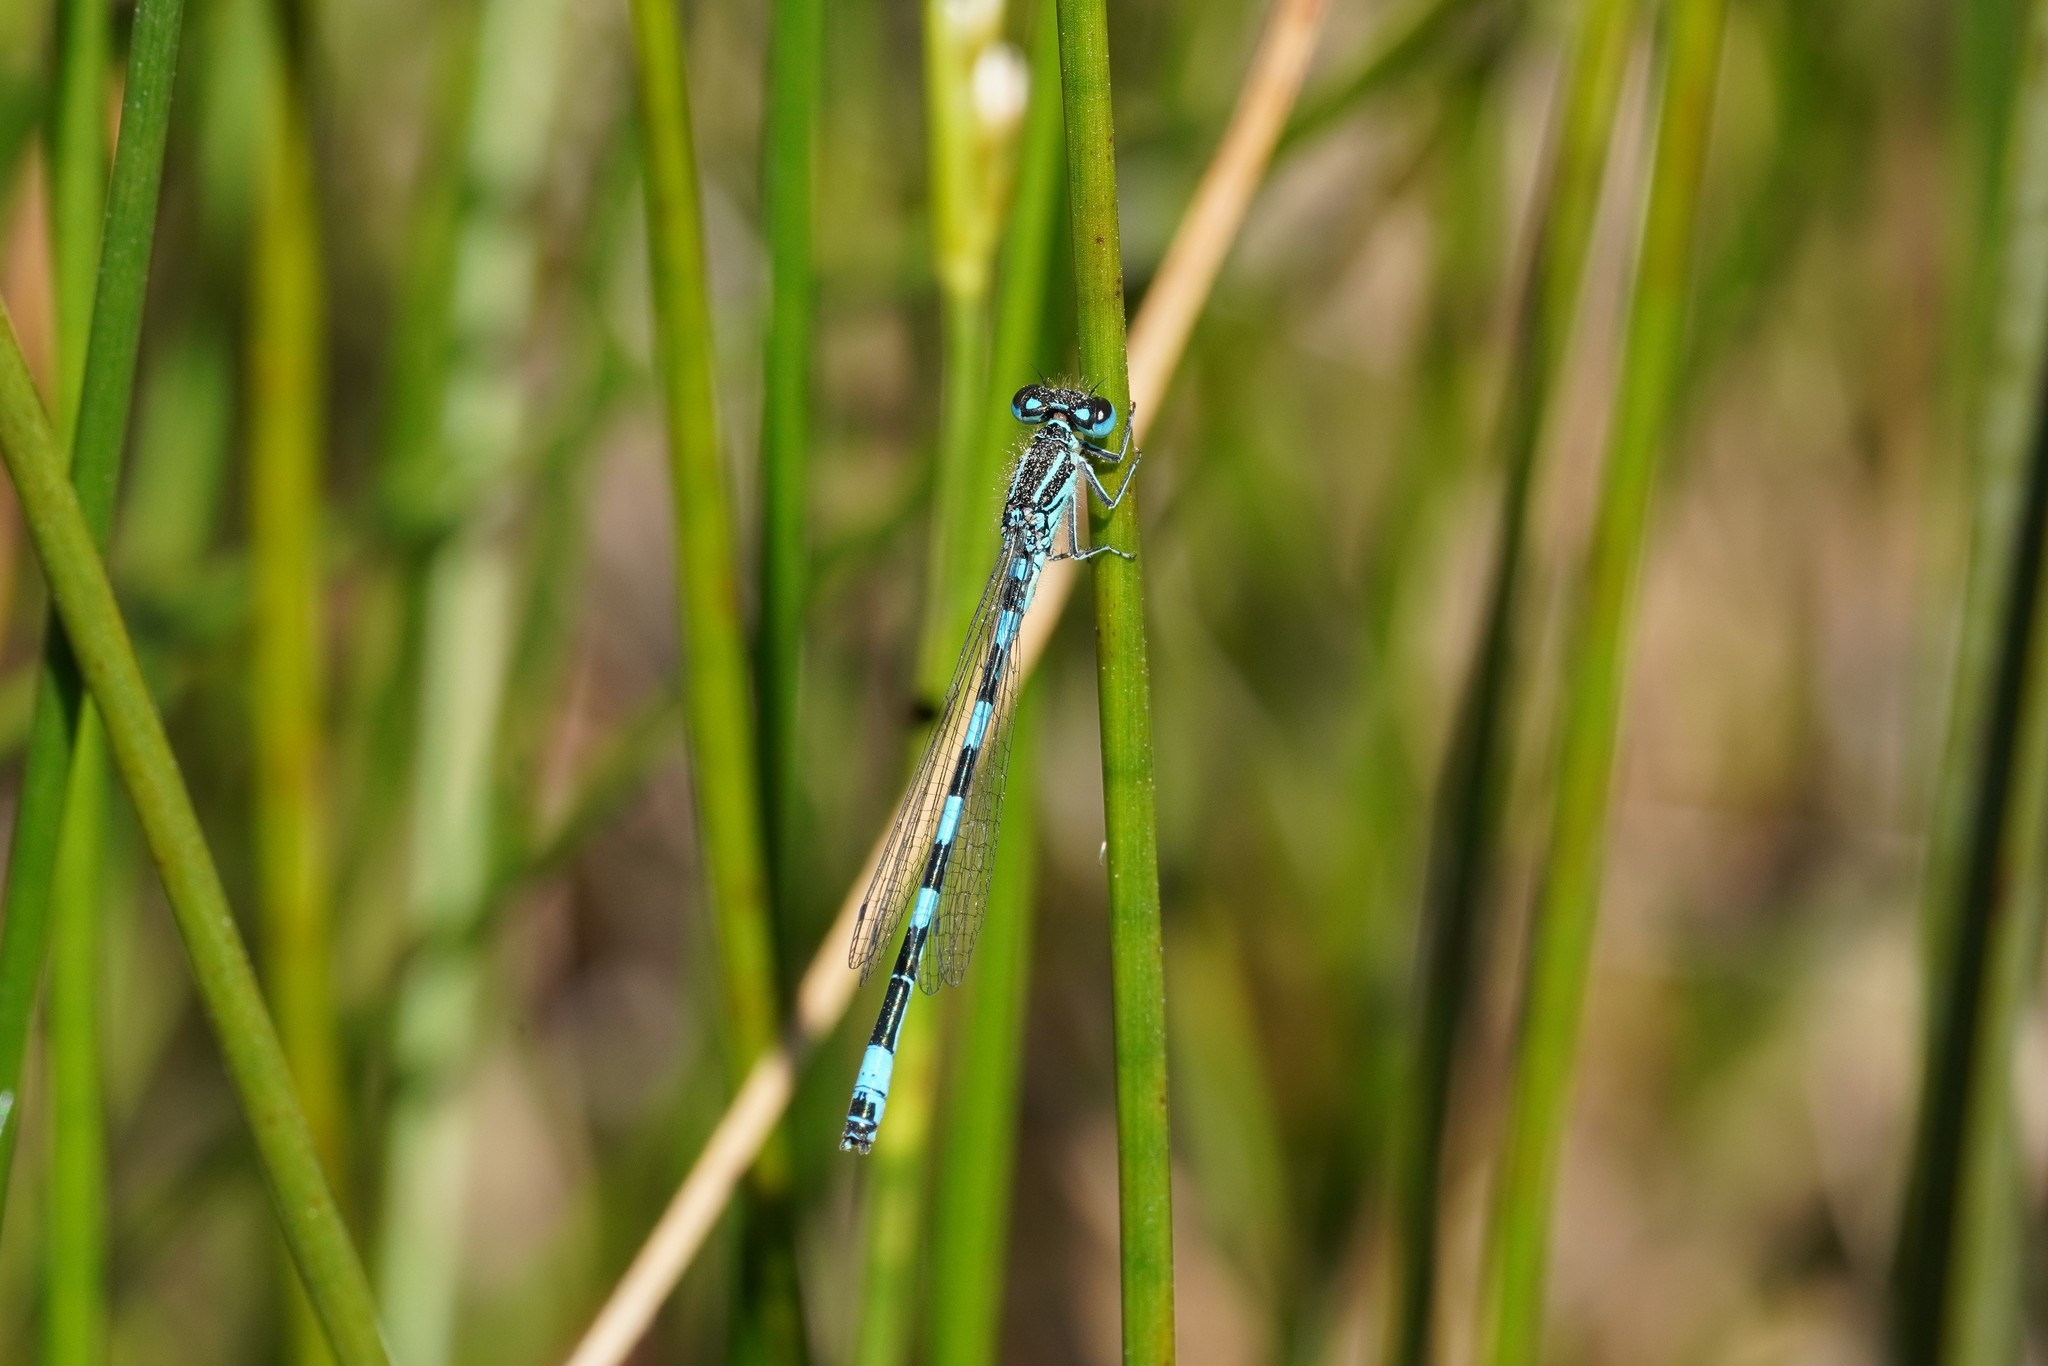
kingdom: Animalia
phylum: Arthropoda
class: Insecta
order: Odonata
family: Coenagrionidae
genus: Coenagrion
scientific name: Coenagrion mercuriale
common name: Southern damselfly
